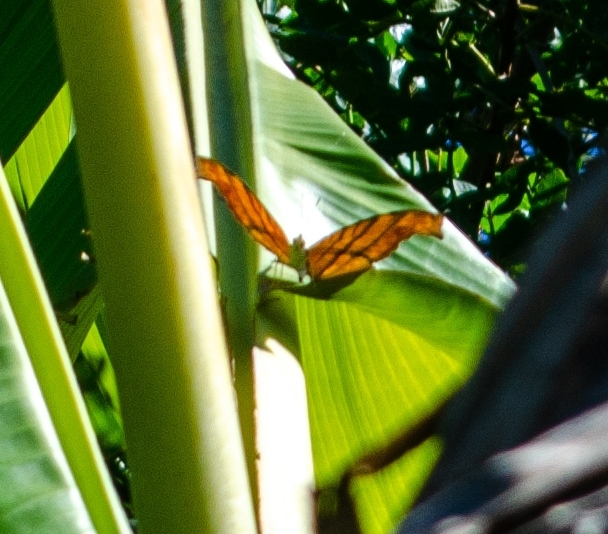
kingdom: Animalia
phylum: Arthropoda
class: Insecta
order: Lepidoptera
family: Nymphalidae
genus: Marpesia
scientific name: Marpesia petreus
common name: Red dagger wing
